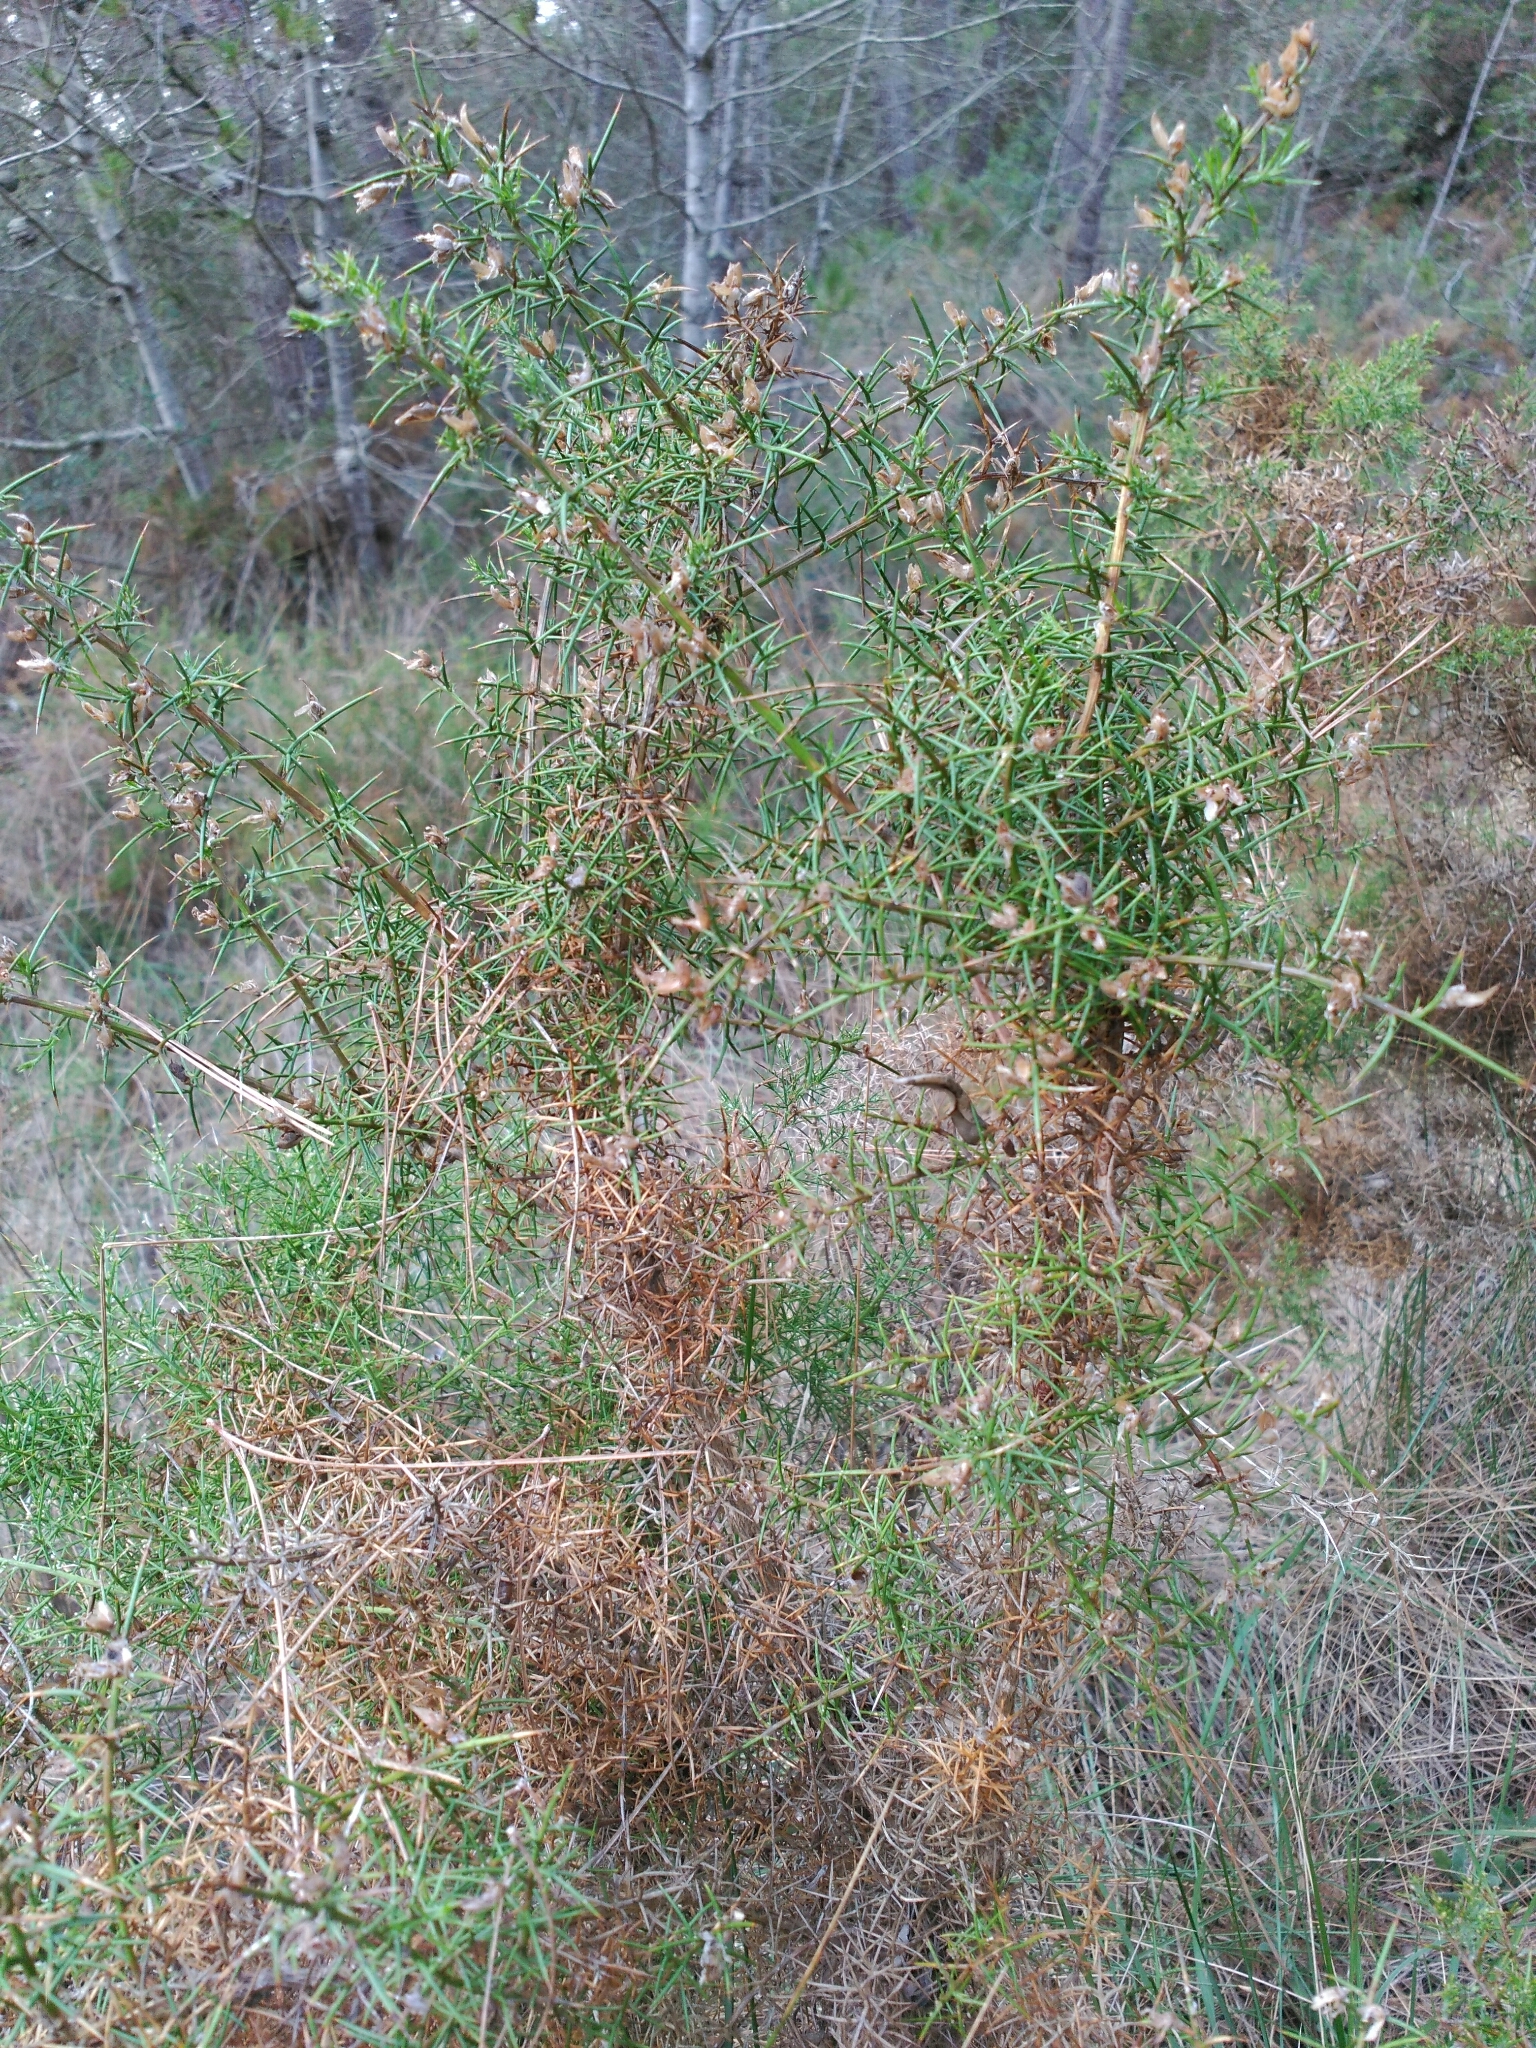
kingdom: Plantae
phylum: Tracheophyta
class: Magnoliopsida
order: Fabales
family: Fabaceae
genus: Ulex
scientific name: Ulex parviflorus
